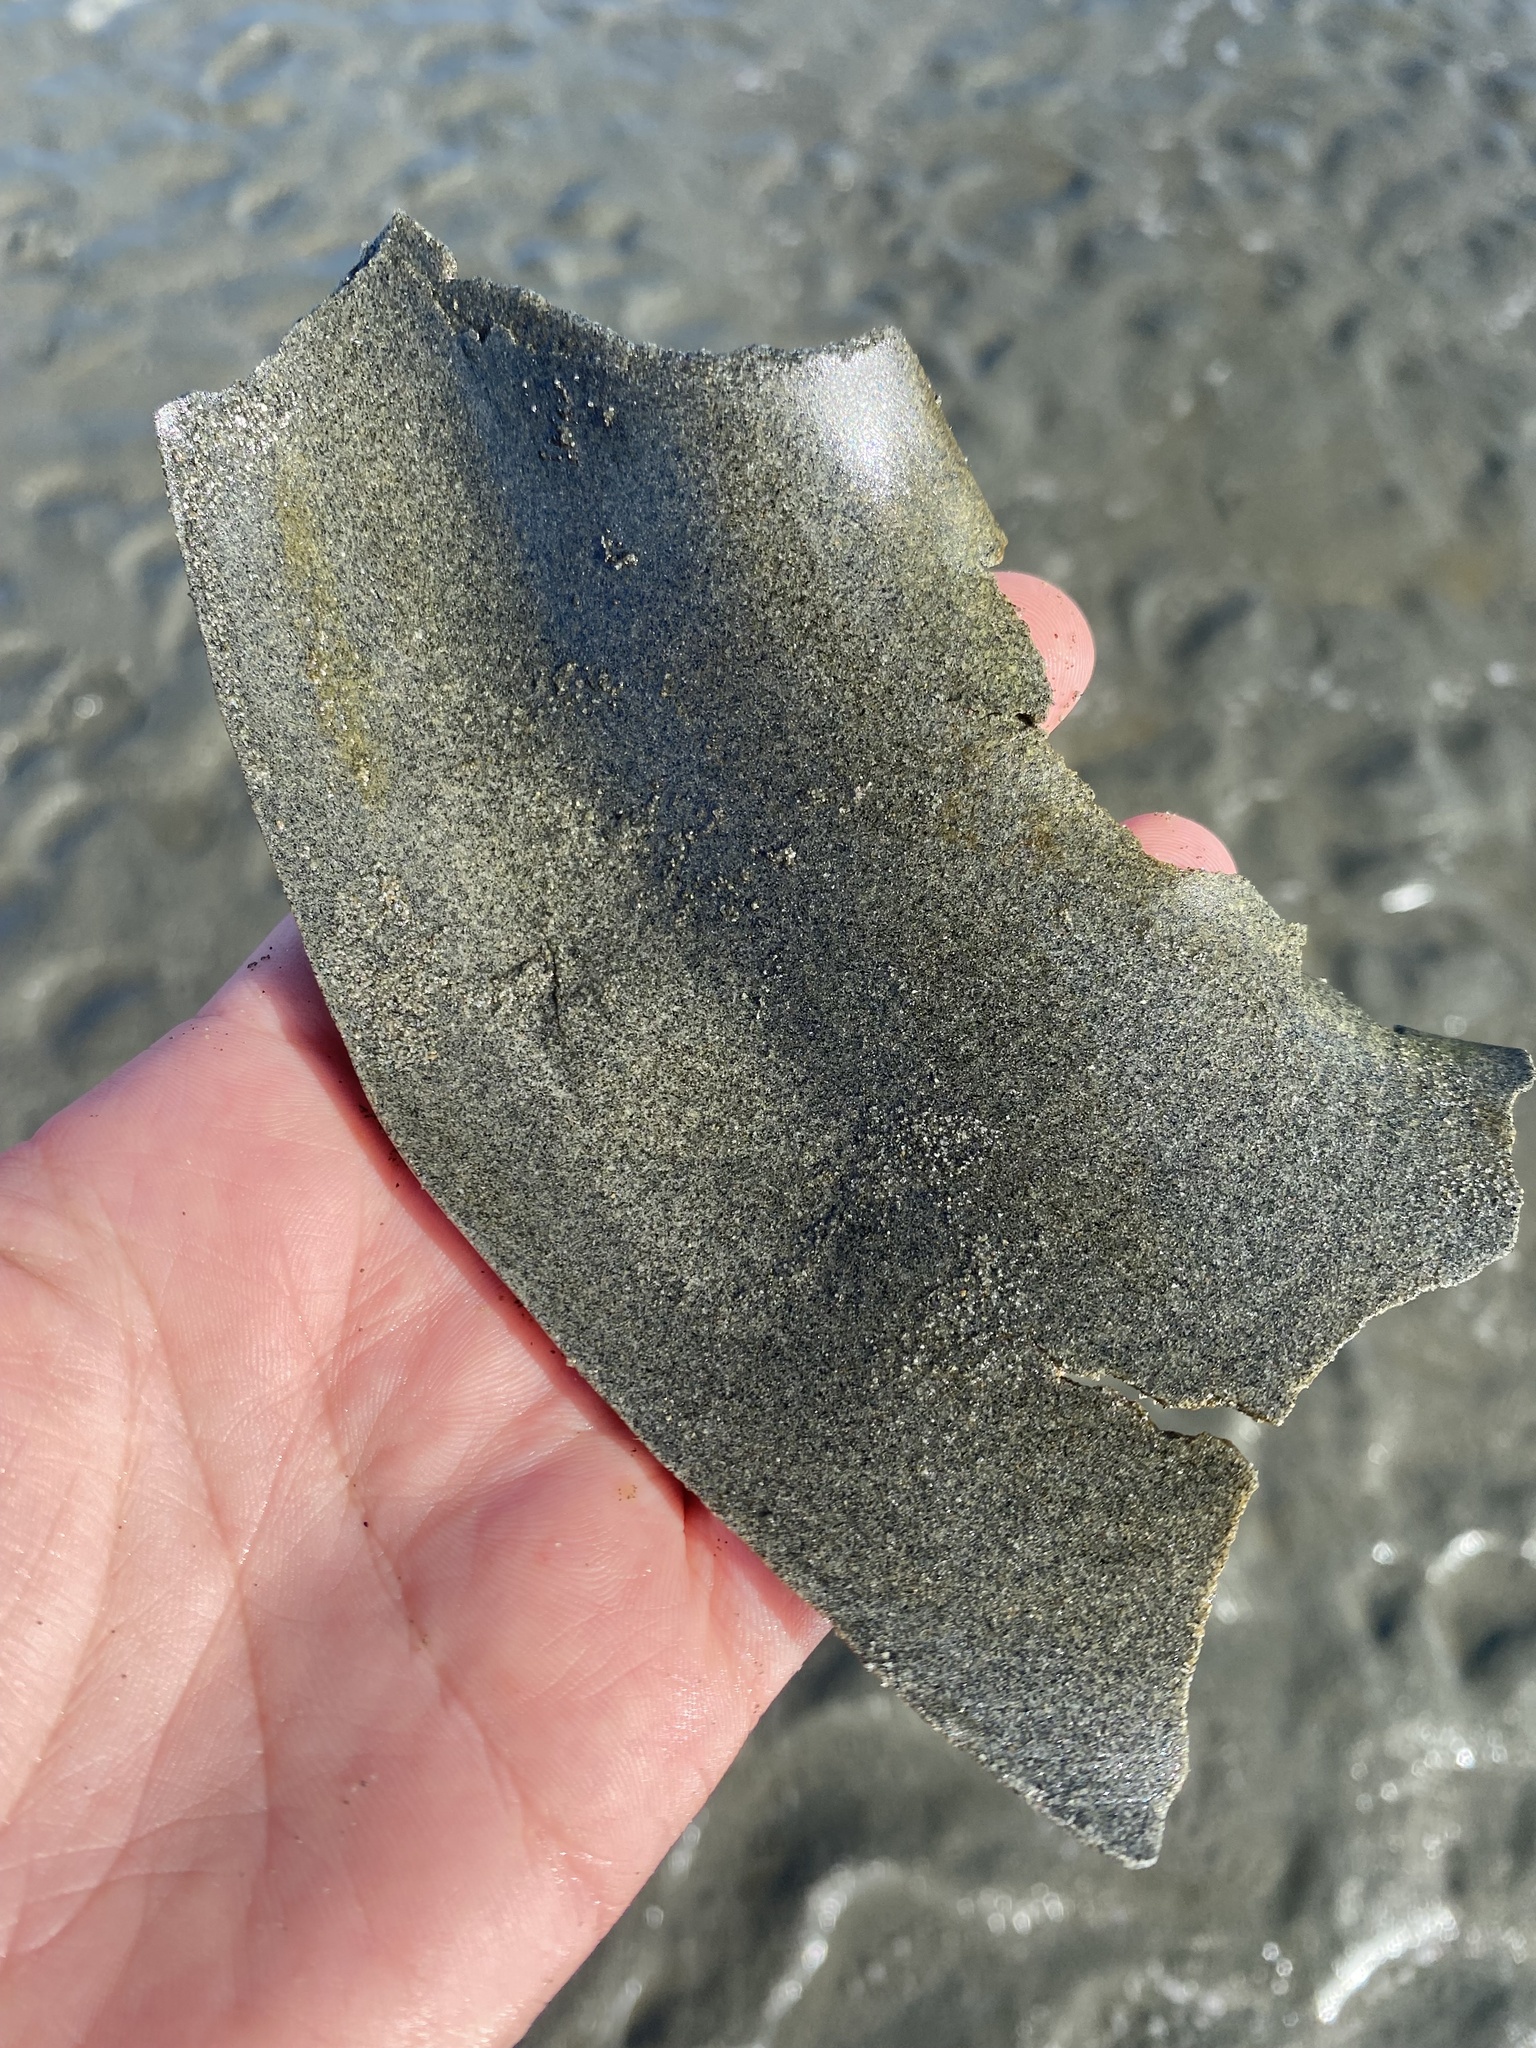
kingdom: Animalia
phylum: Mollusca
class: Gastropoda
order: Littorinimorpha
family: Naticidae
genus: Neverita
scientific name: Neverita lewisii
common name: Lewis' moonsnail
